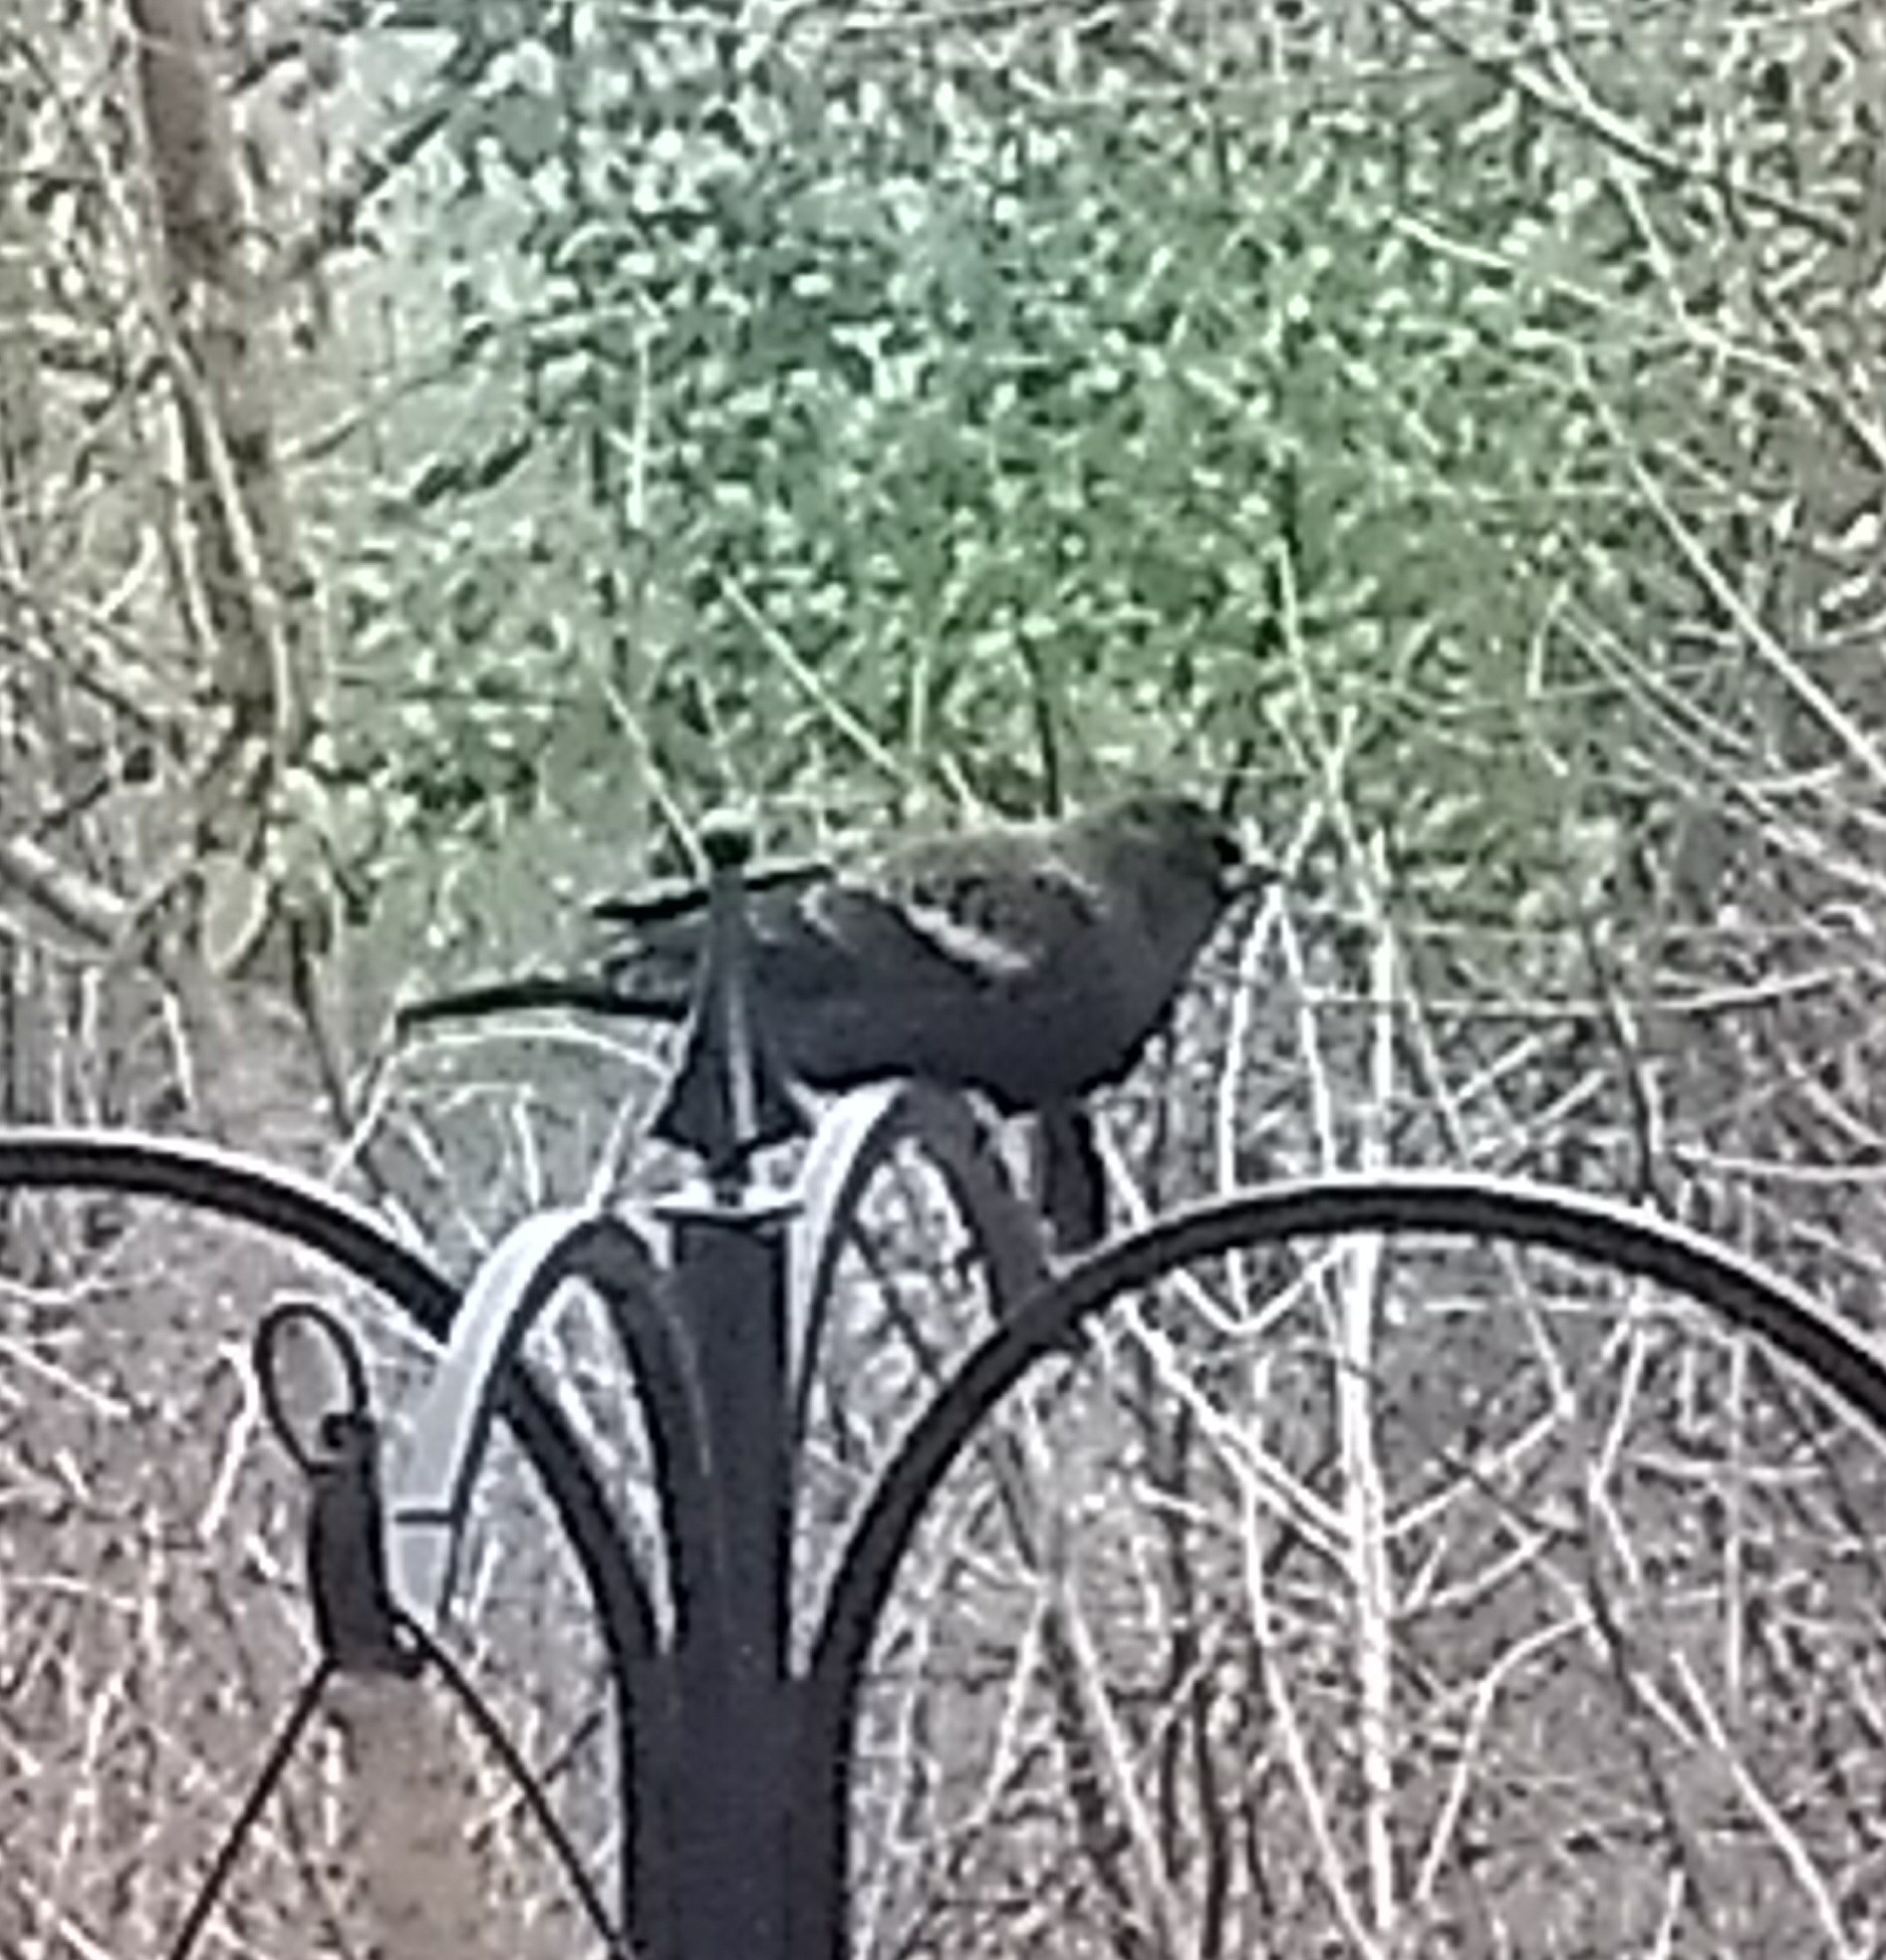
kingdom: Animalia
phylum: Chordata
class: Aves
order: Passeriformes
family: Icteridae
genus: Agelaius
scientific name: Agelaius phoeniceus
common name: Red-winged blackbird
